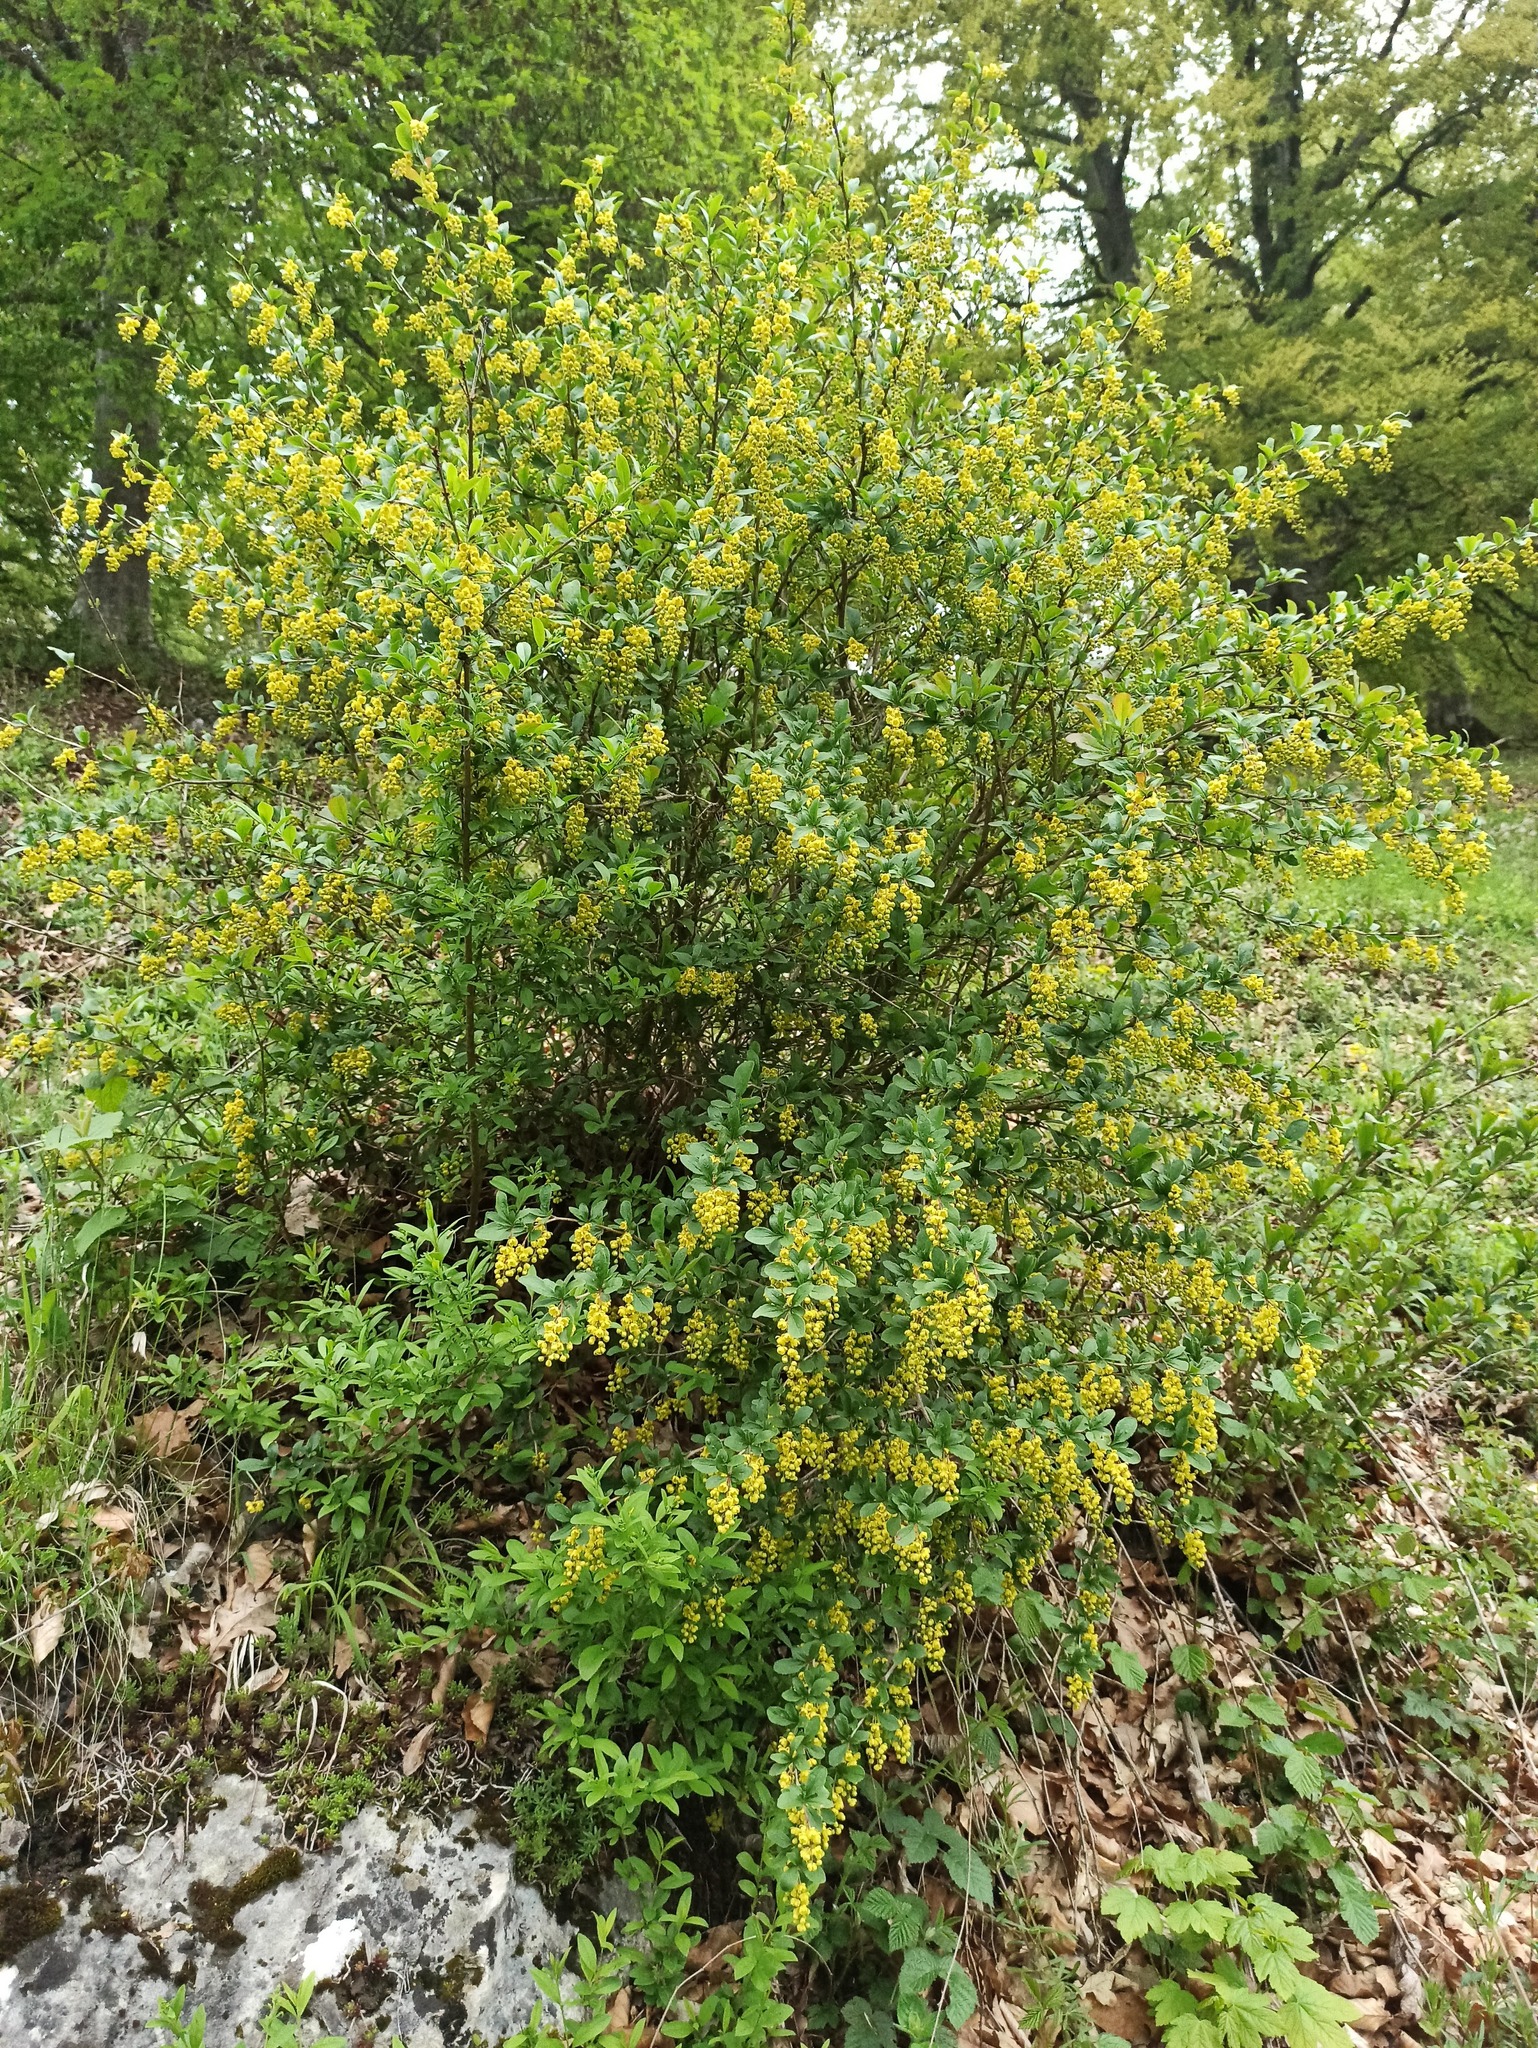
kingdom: Plantae
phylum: Tracheophyta
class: Magnoliopsida
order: Ranunculales
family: Berberidaceae
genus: Berberis
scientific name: Berberis vulgaris
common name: Barberry
